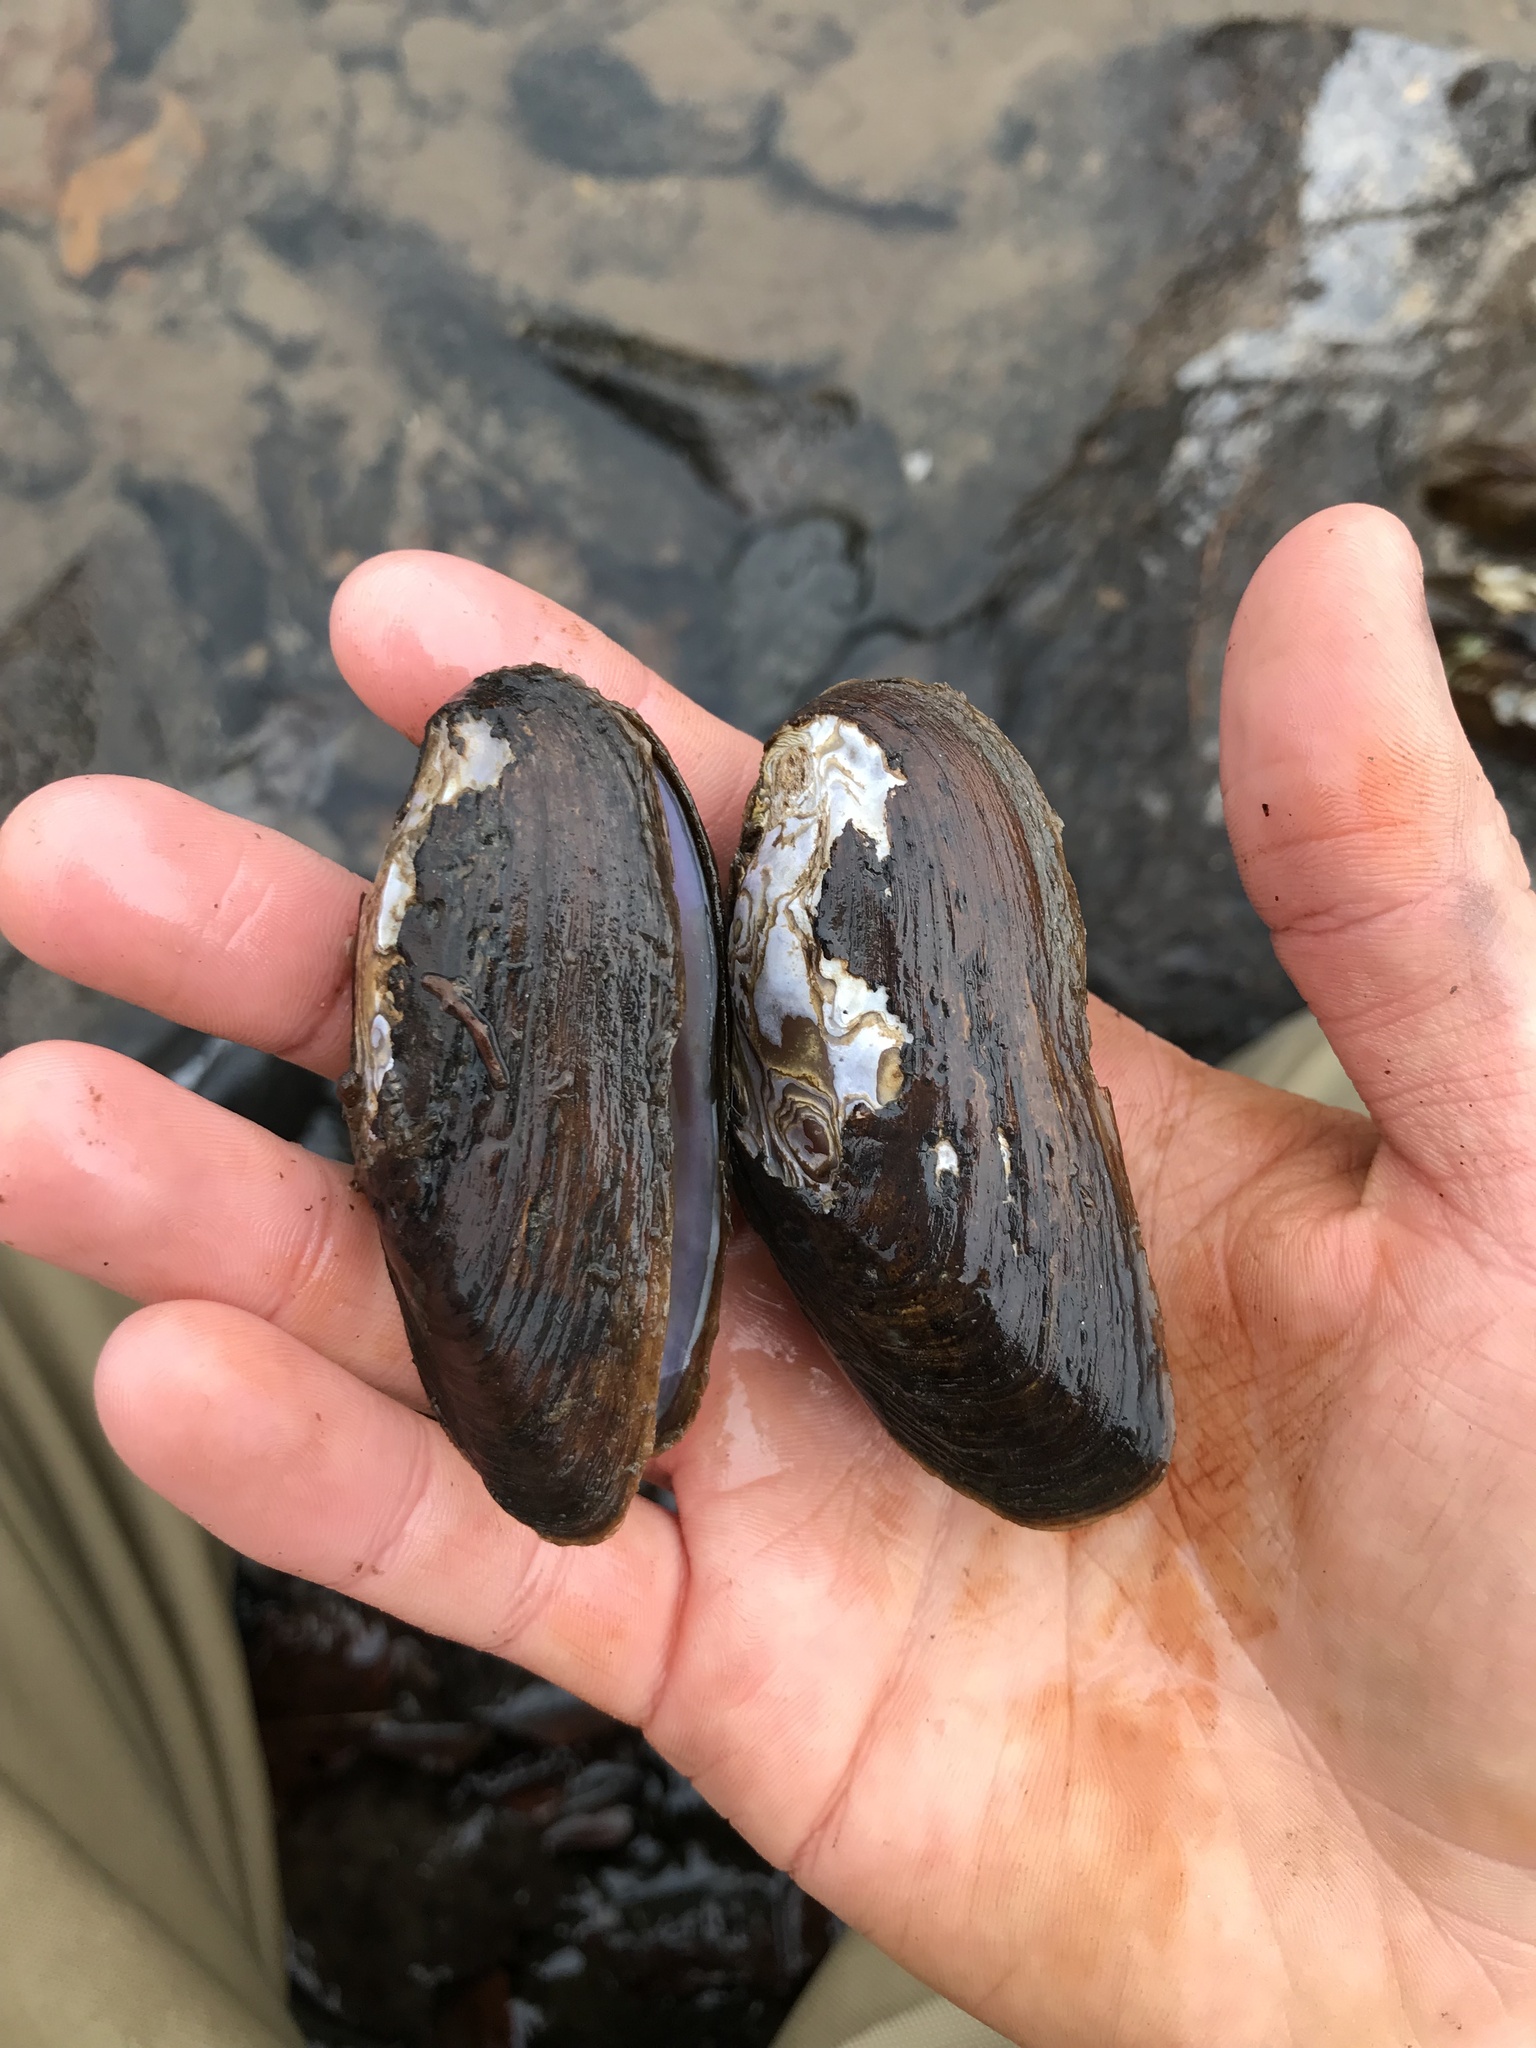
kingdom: Animalia
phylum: Mollusca
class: Bivalvia
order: Unionida
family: Unionidae
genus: Eurynia
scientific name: Eurynia dilatata
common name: Spike
